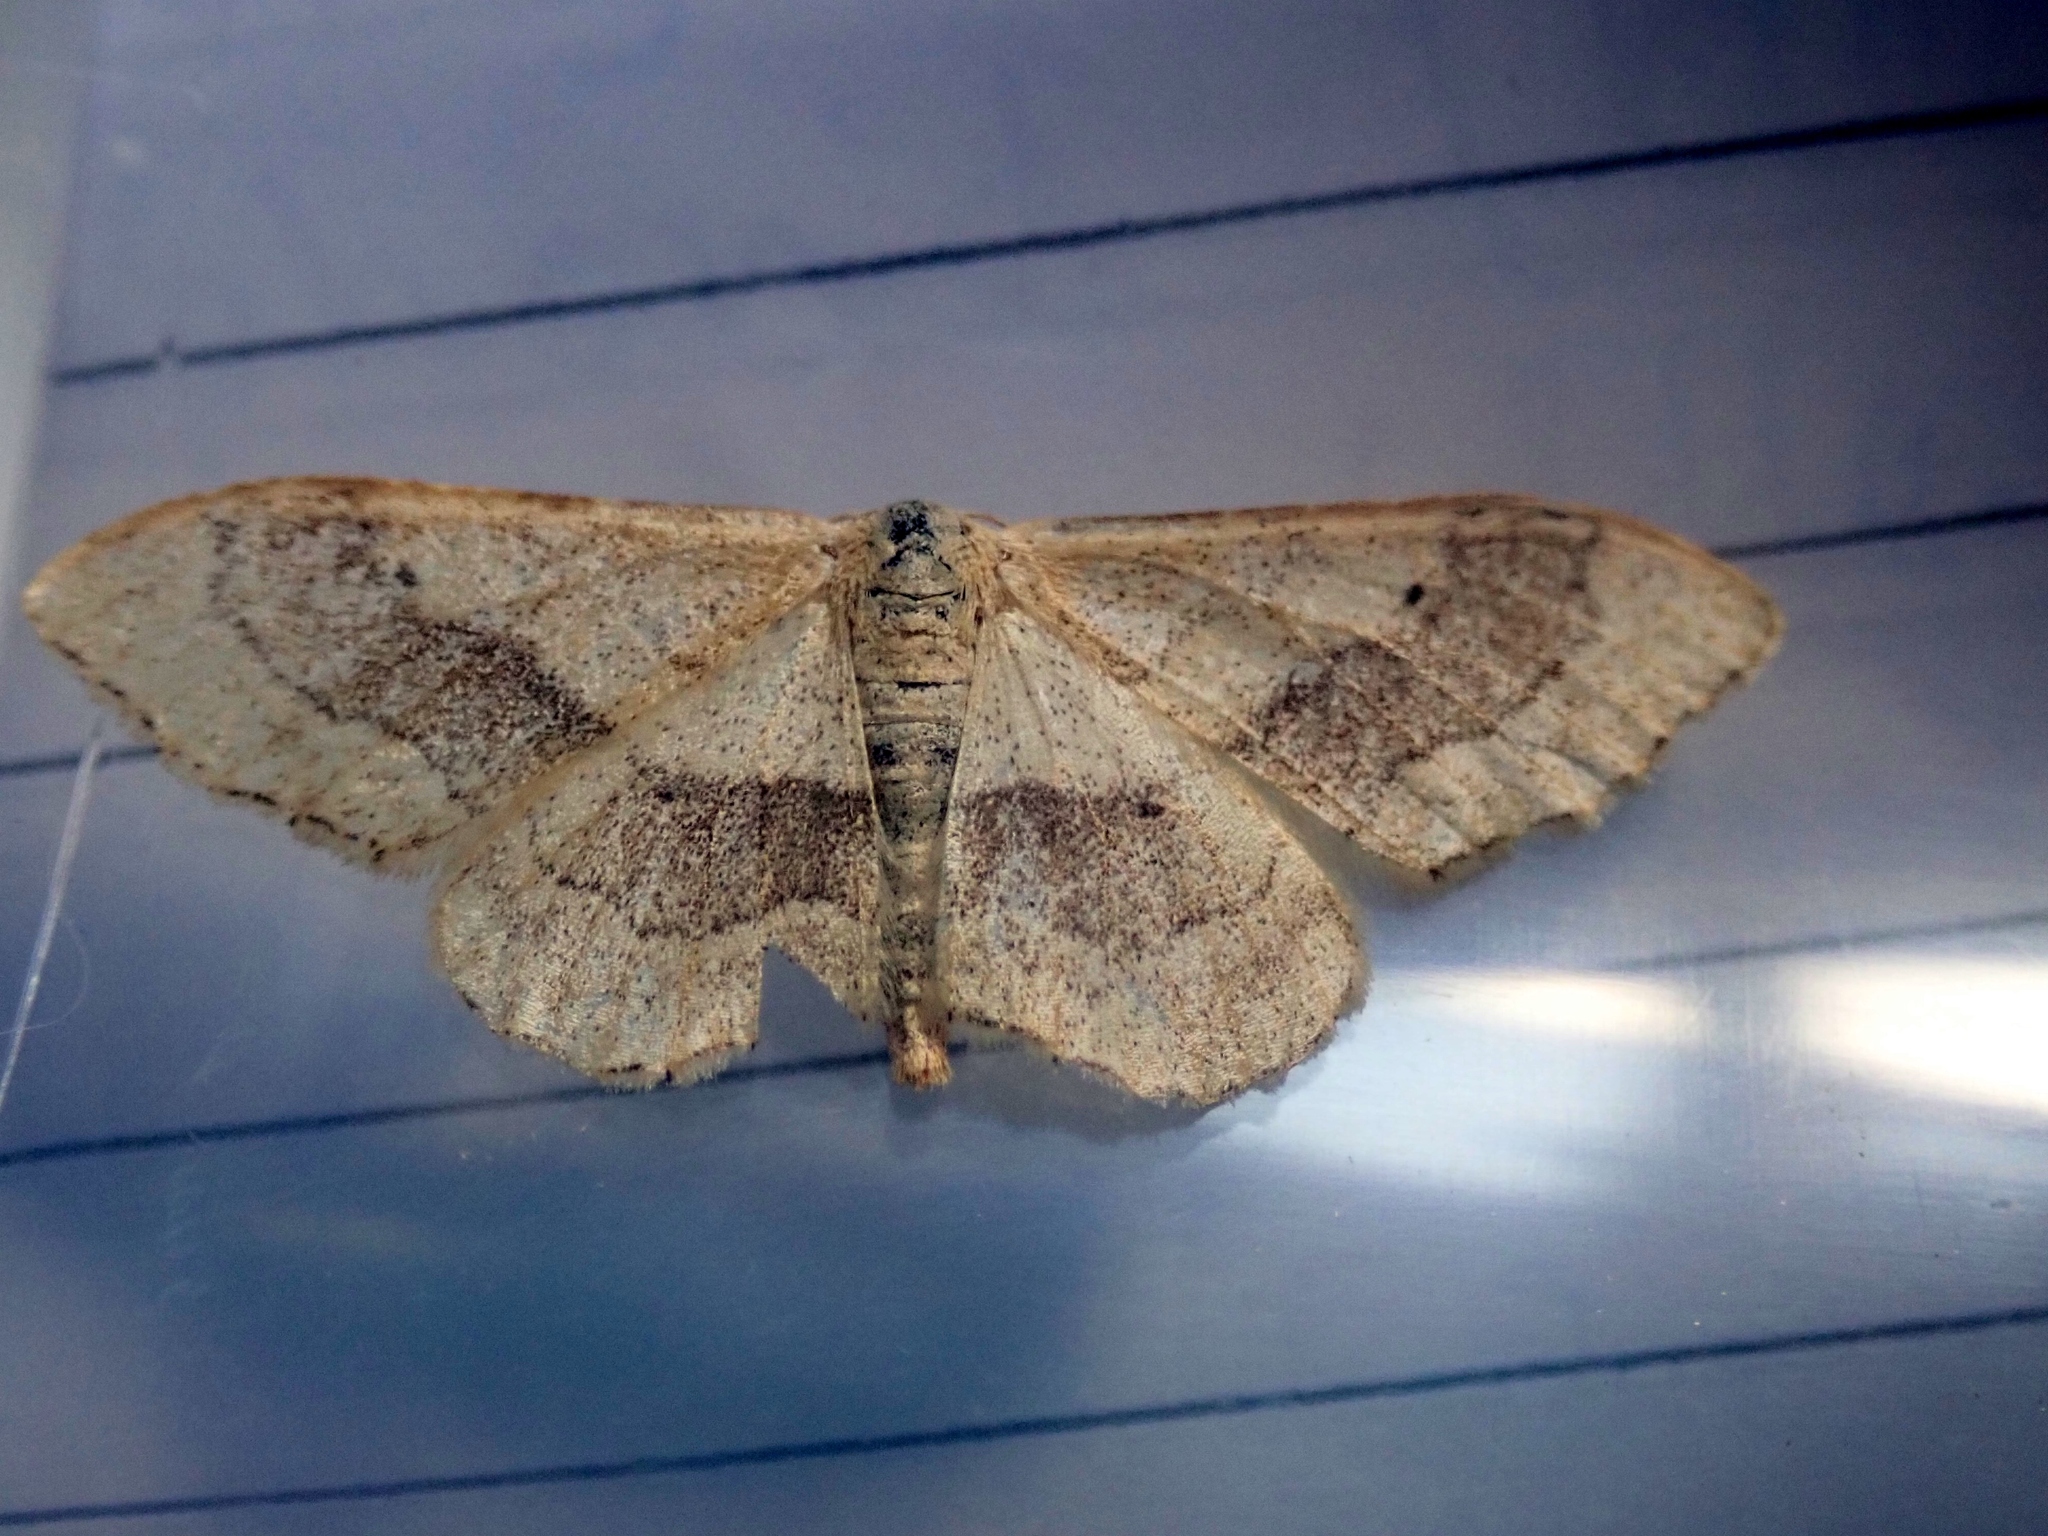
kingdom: Animalia
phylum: Arthropoda
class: Insecta
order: Lepidoptera
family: Geometridae
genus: Idaea
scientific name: Idaea aversata
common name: Riband wave
